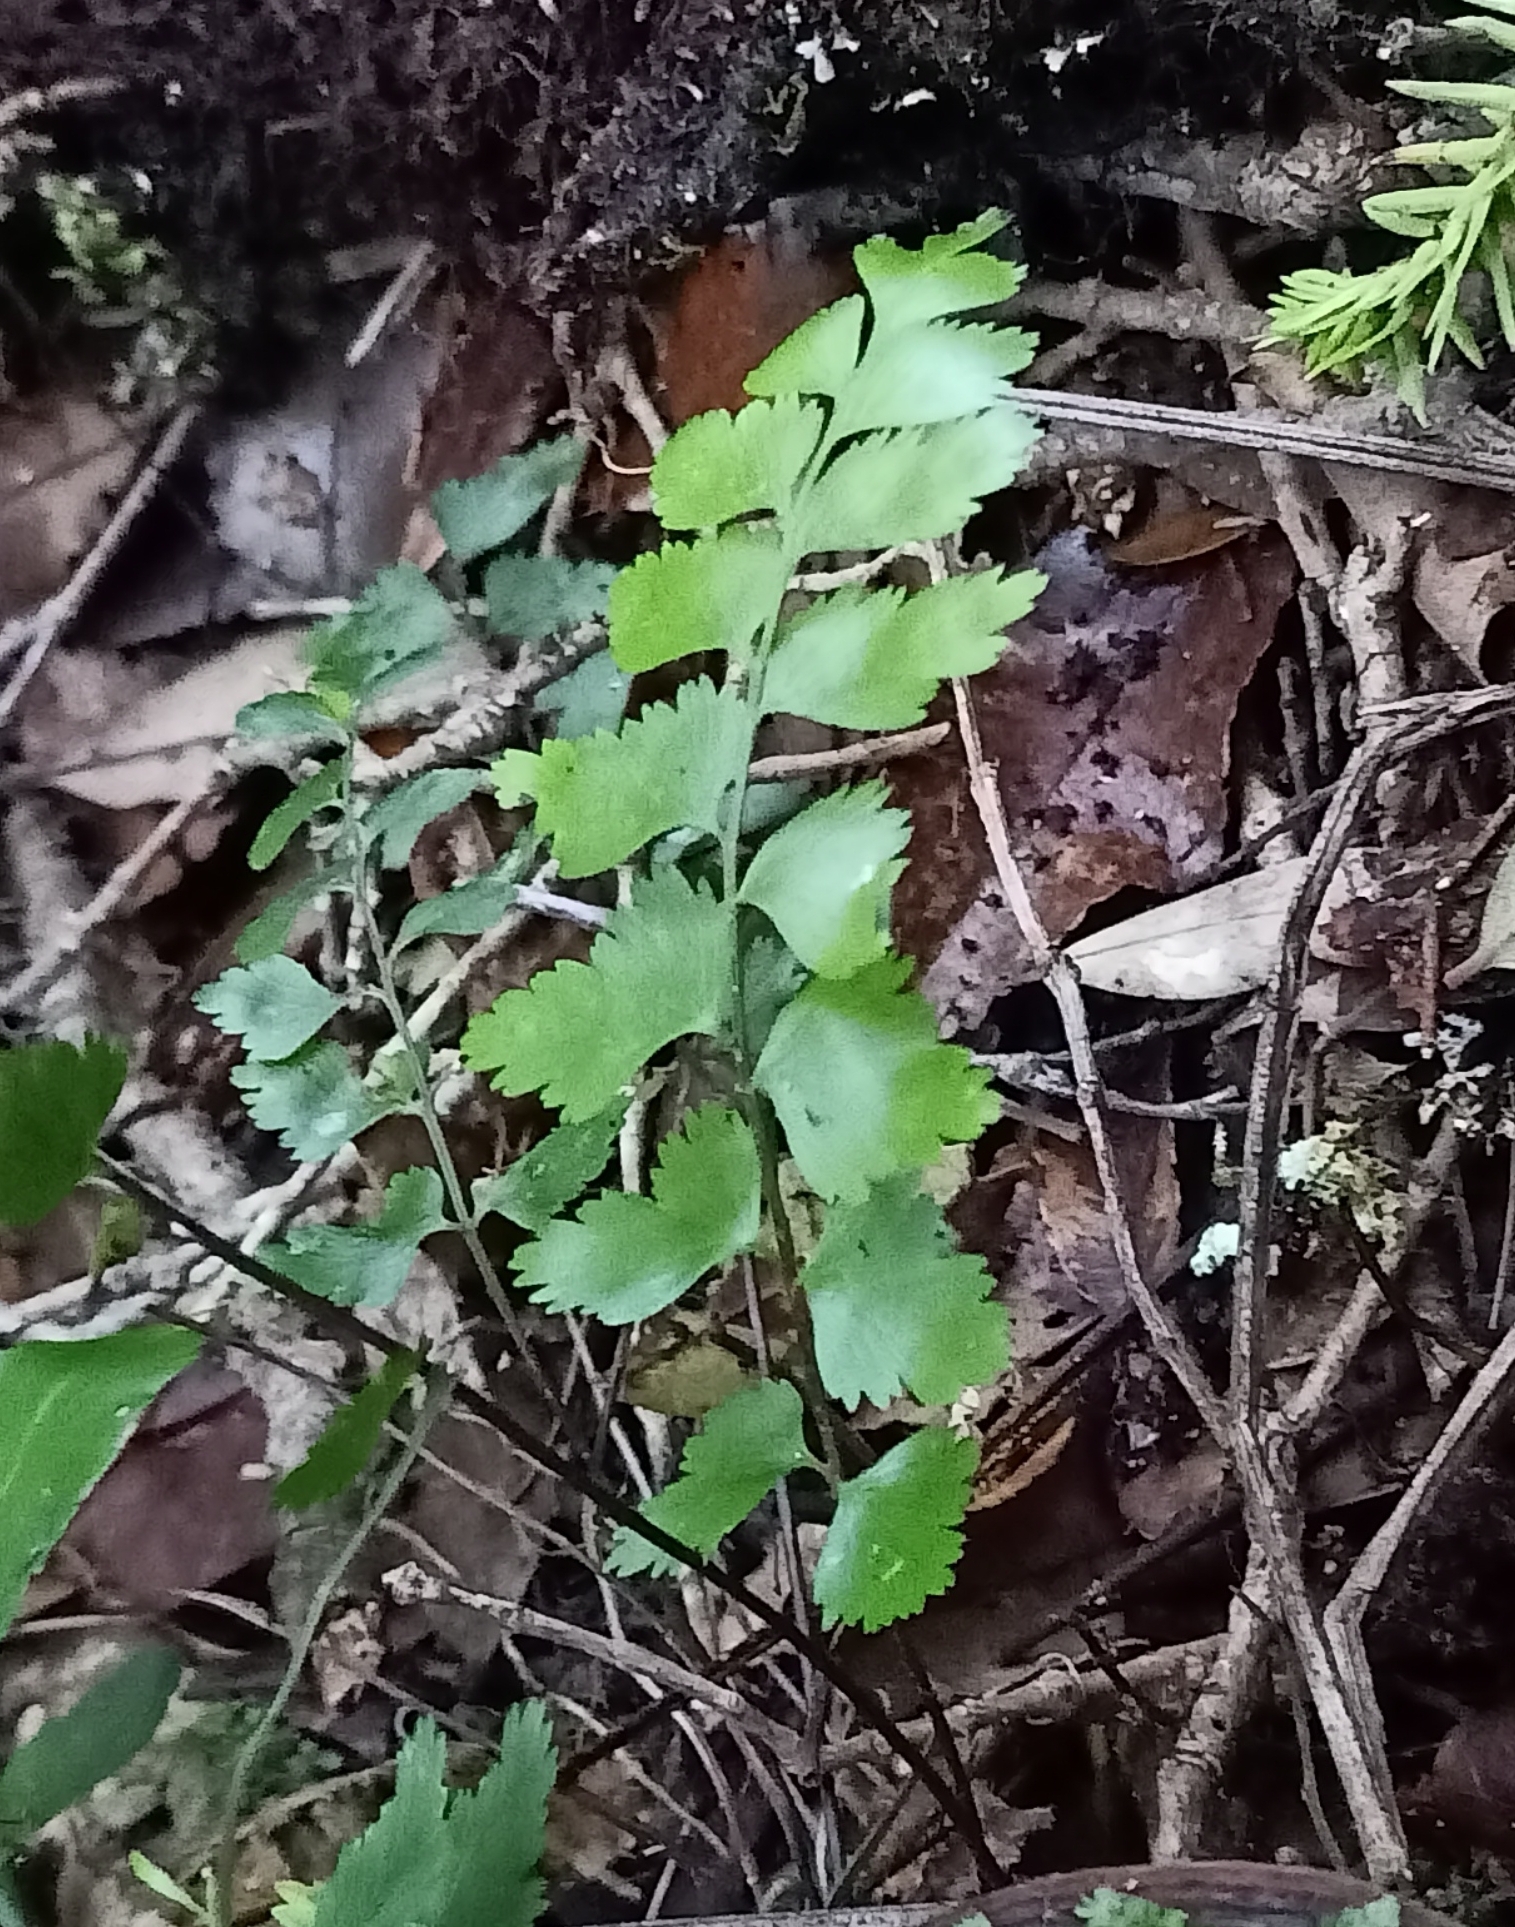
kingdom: Plantae
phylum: Tracheophyta
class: Polypodiopsida
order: Polypodiales
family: Aspleniaceae
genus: Asplenium
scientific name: Asplenium polyodon
